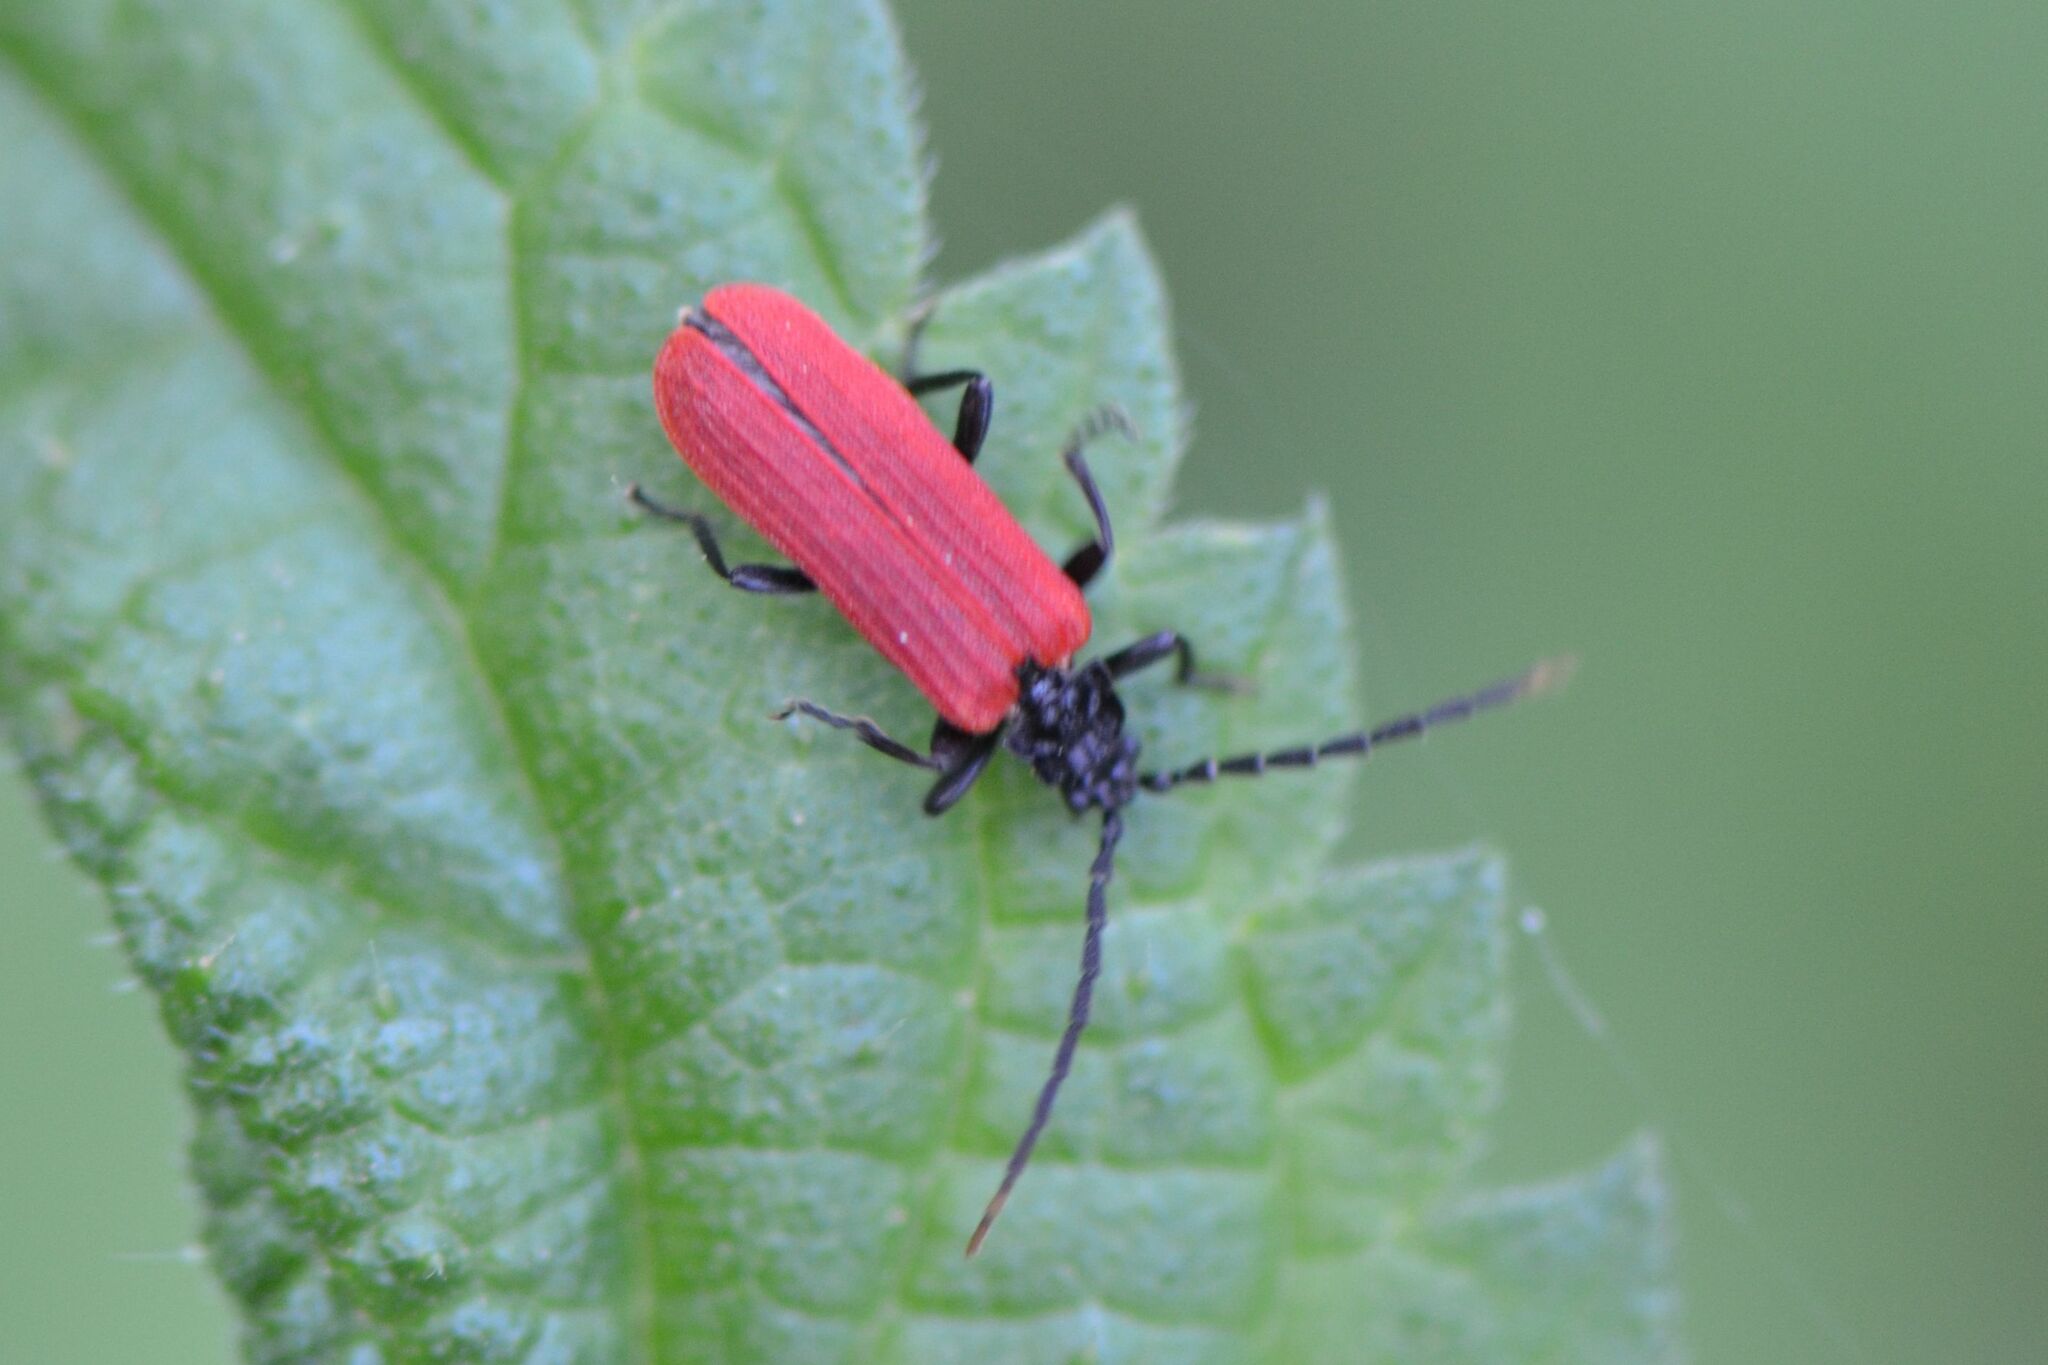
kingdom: Animalia
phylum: Arthropoda
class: Insecta
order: Coleoptera
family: Lycidae
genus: Platycis
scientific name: Platycis minutus
